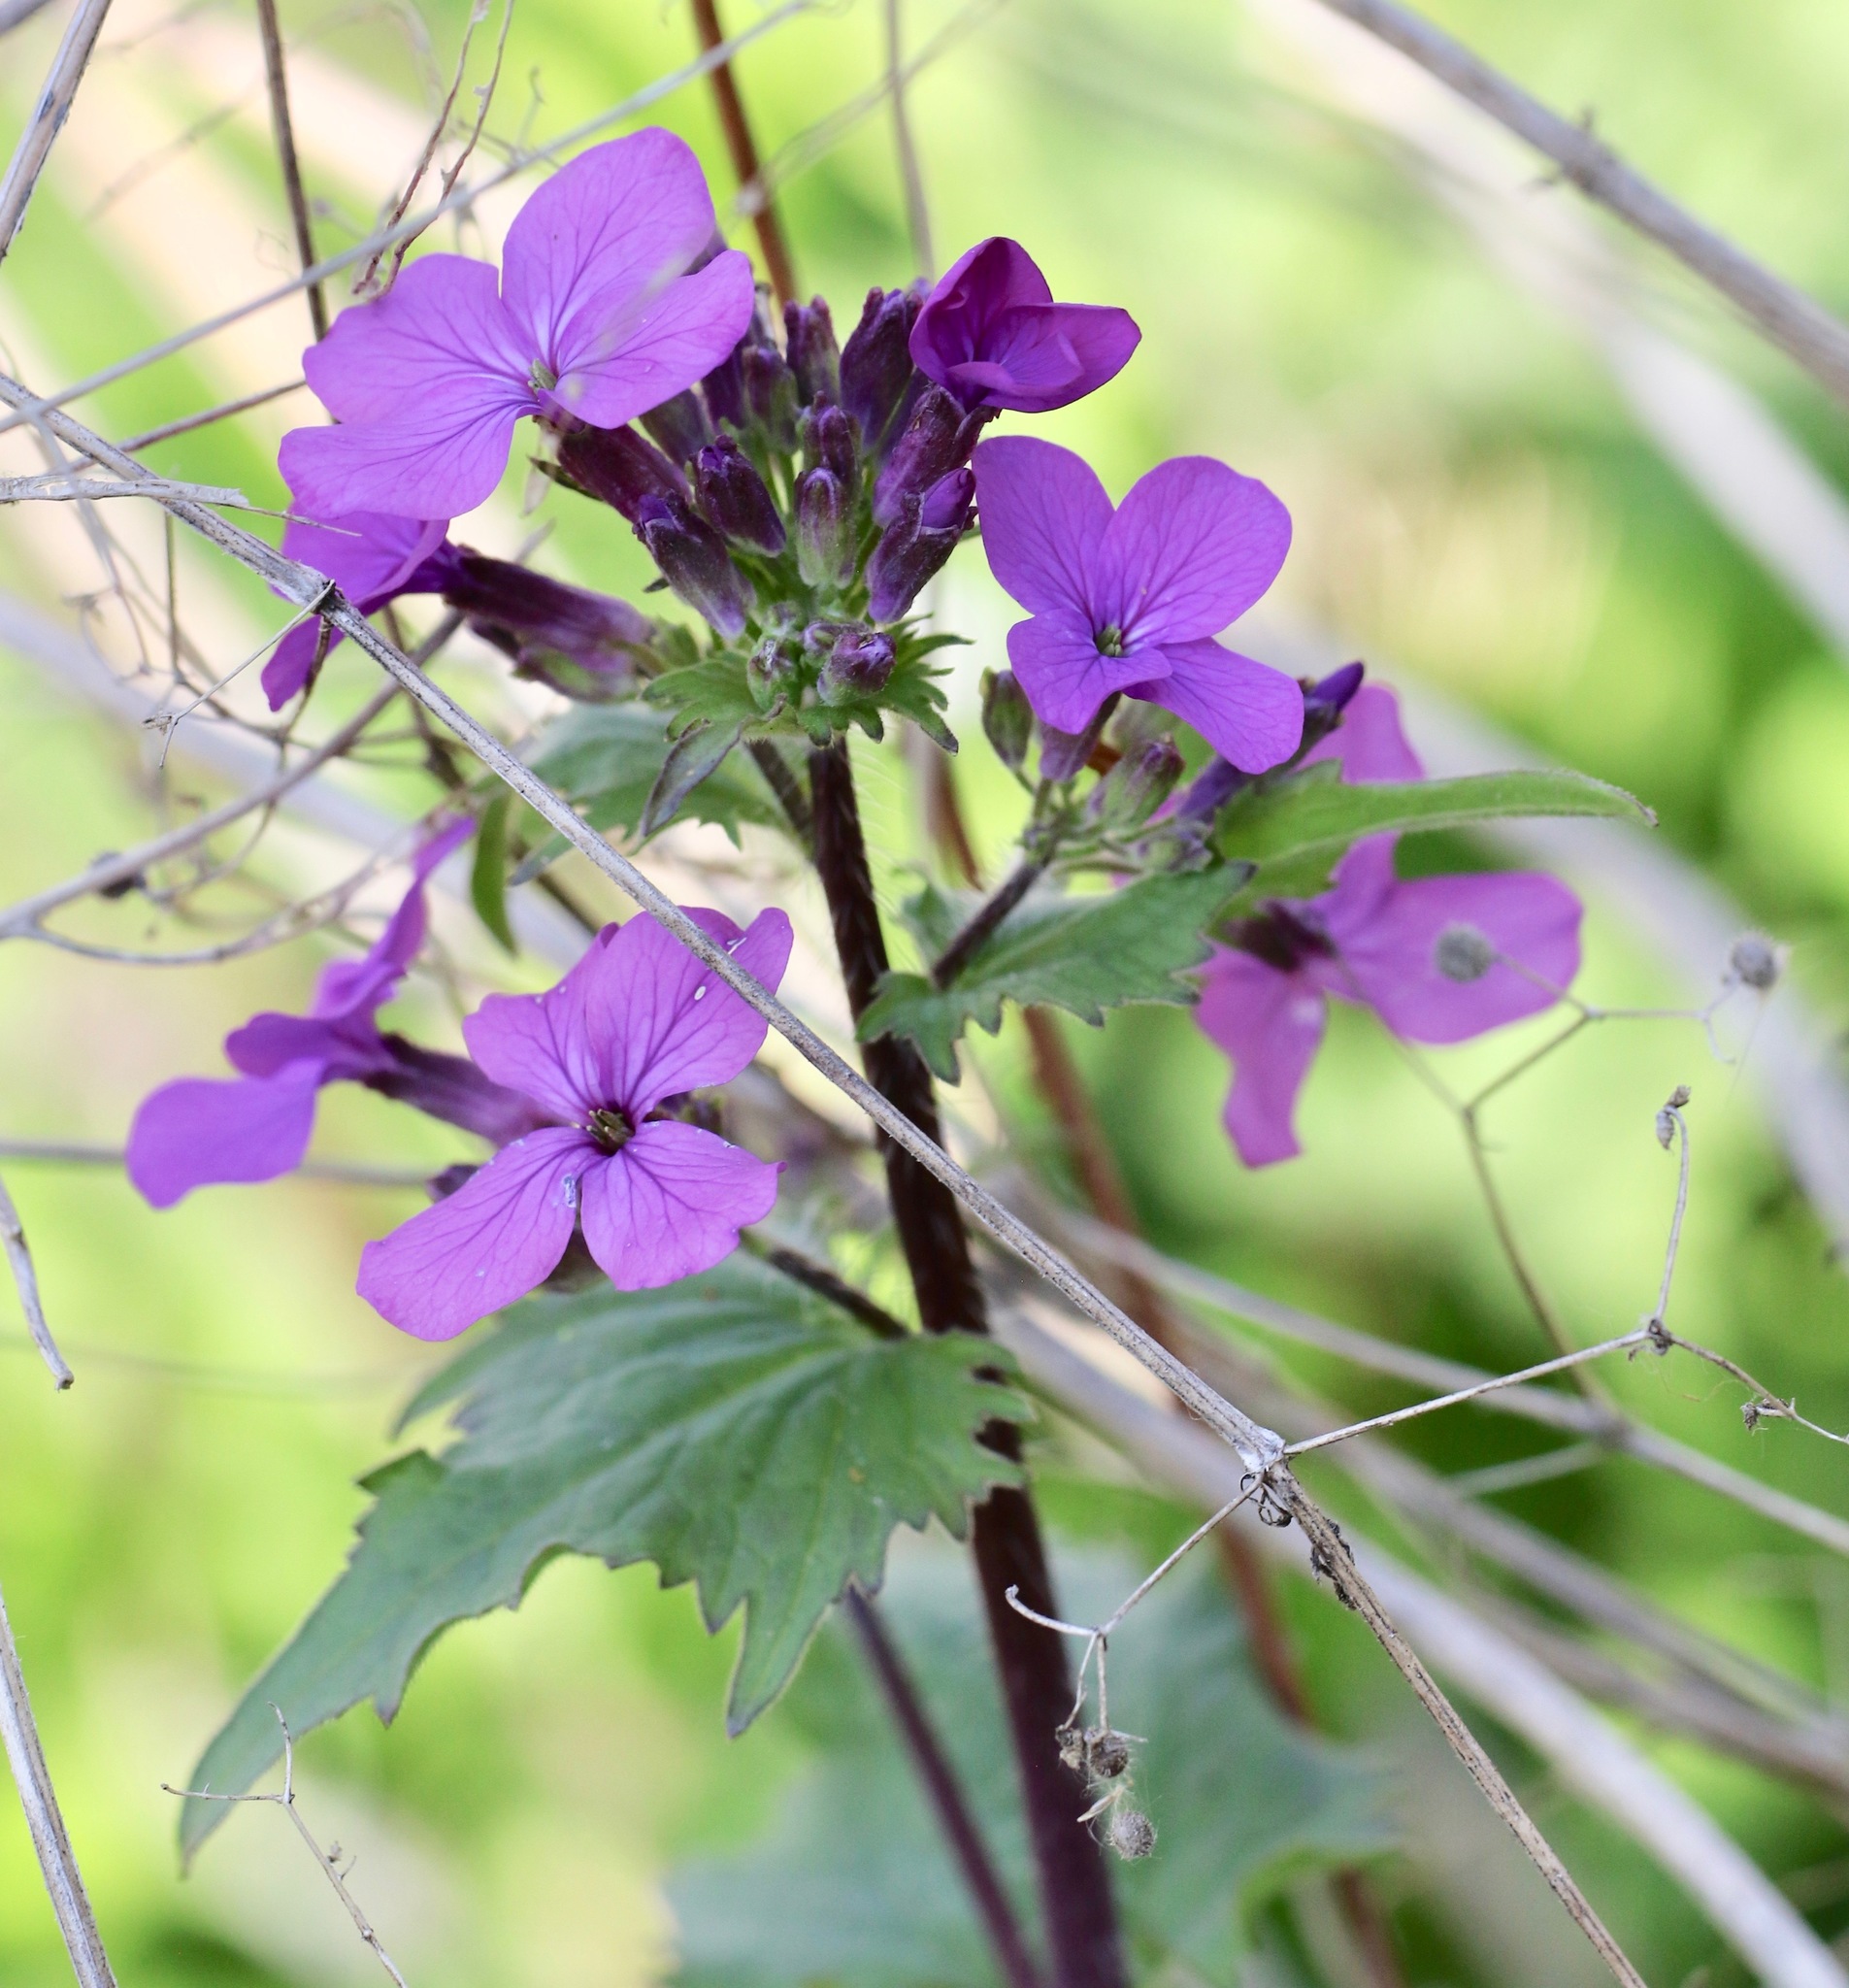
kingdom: Plantae
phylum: Tracheophyta
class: Magnoliopsida
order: Brassicales
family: Brassicaceae
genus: Lunaria
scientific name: Lunaria annua
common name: Honesty
